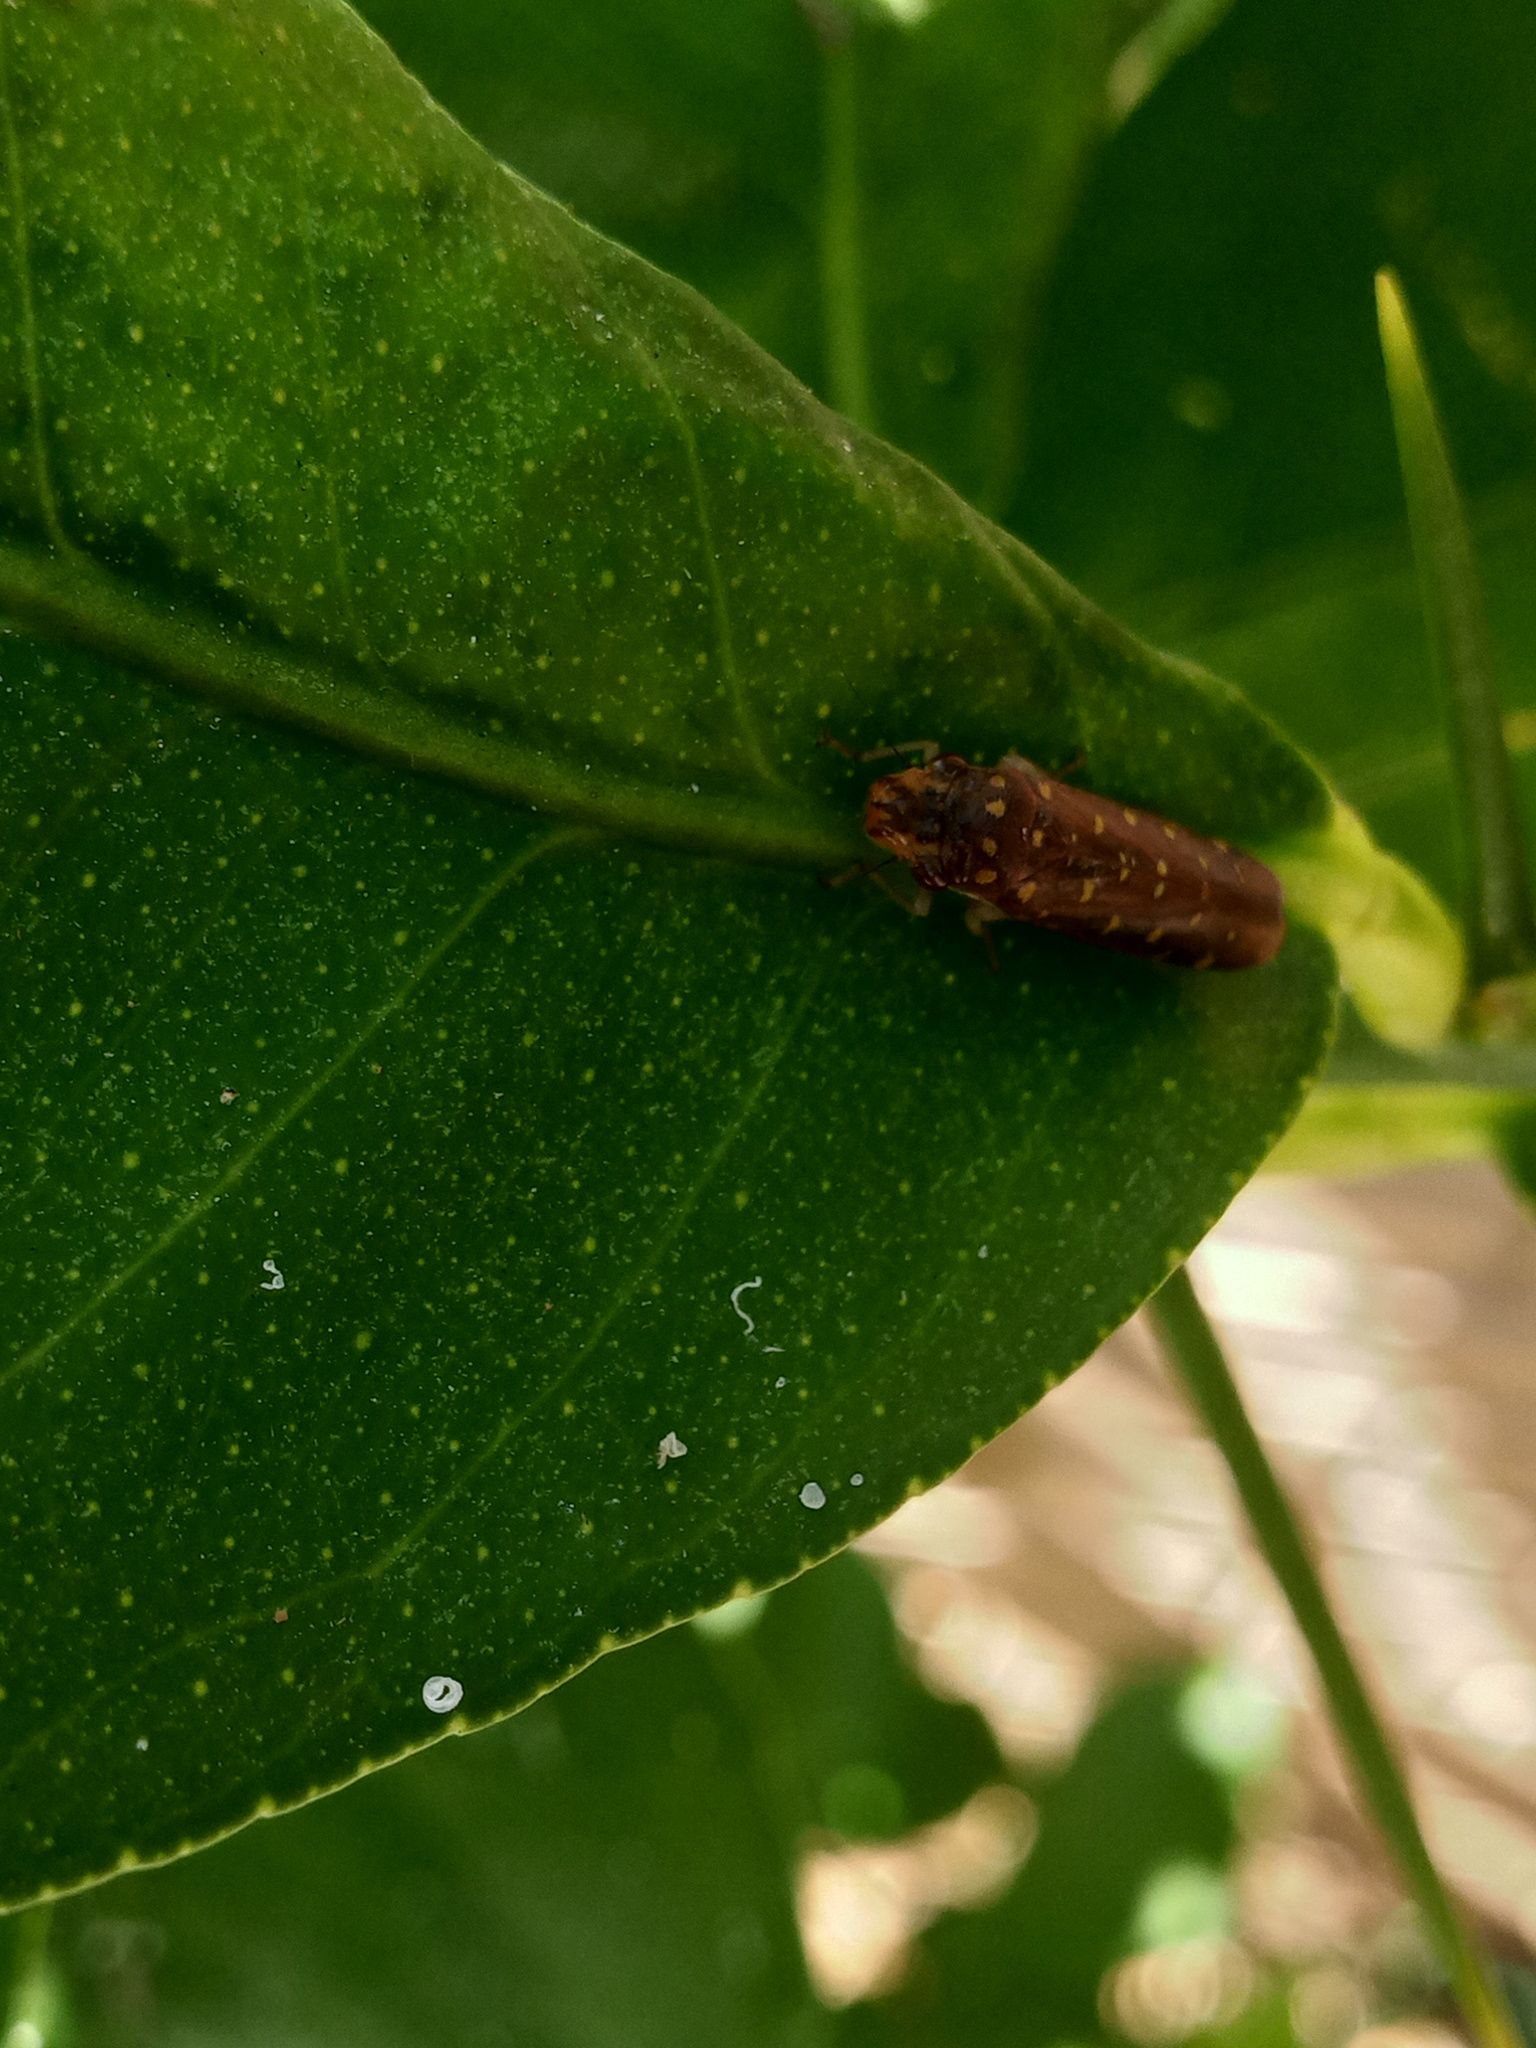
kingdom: Animalia
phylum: Arthropoda
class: Insecta
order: Hemiptera
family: Cicadellidae
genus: Paraulacizes
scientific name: Paraulacizes thunbergii
